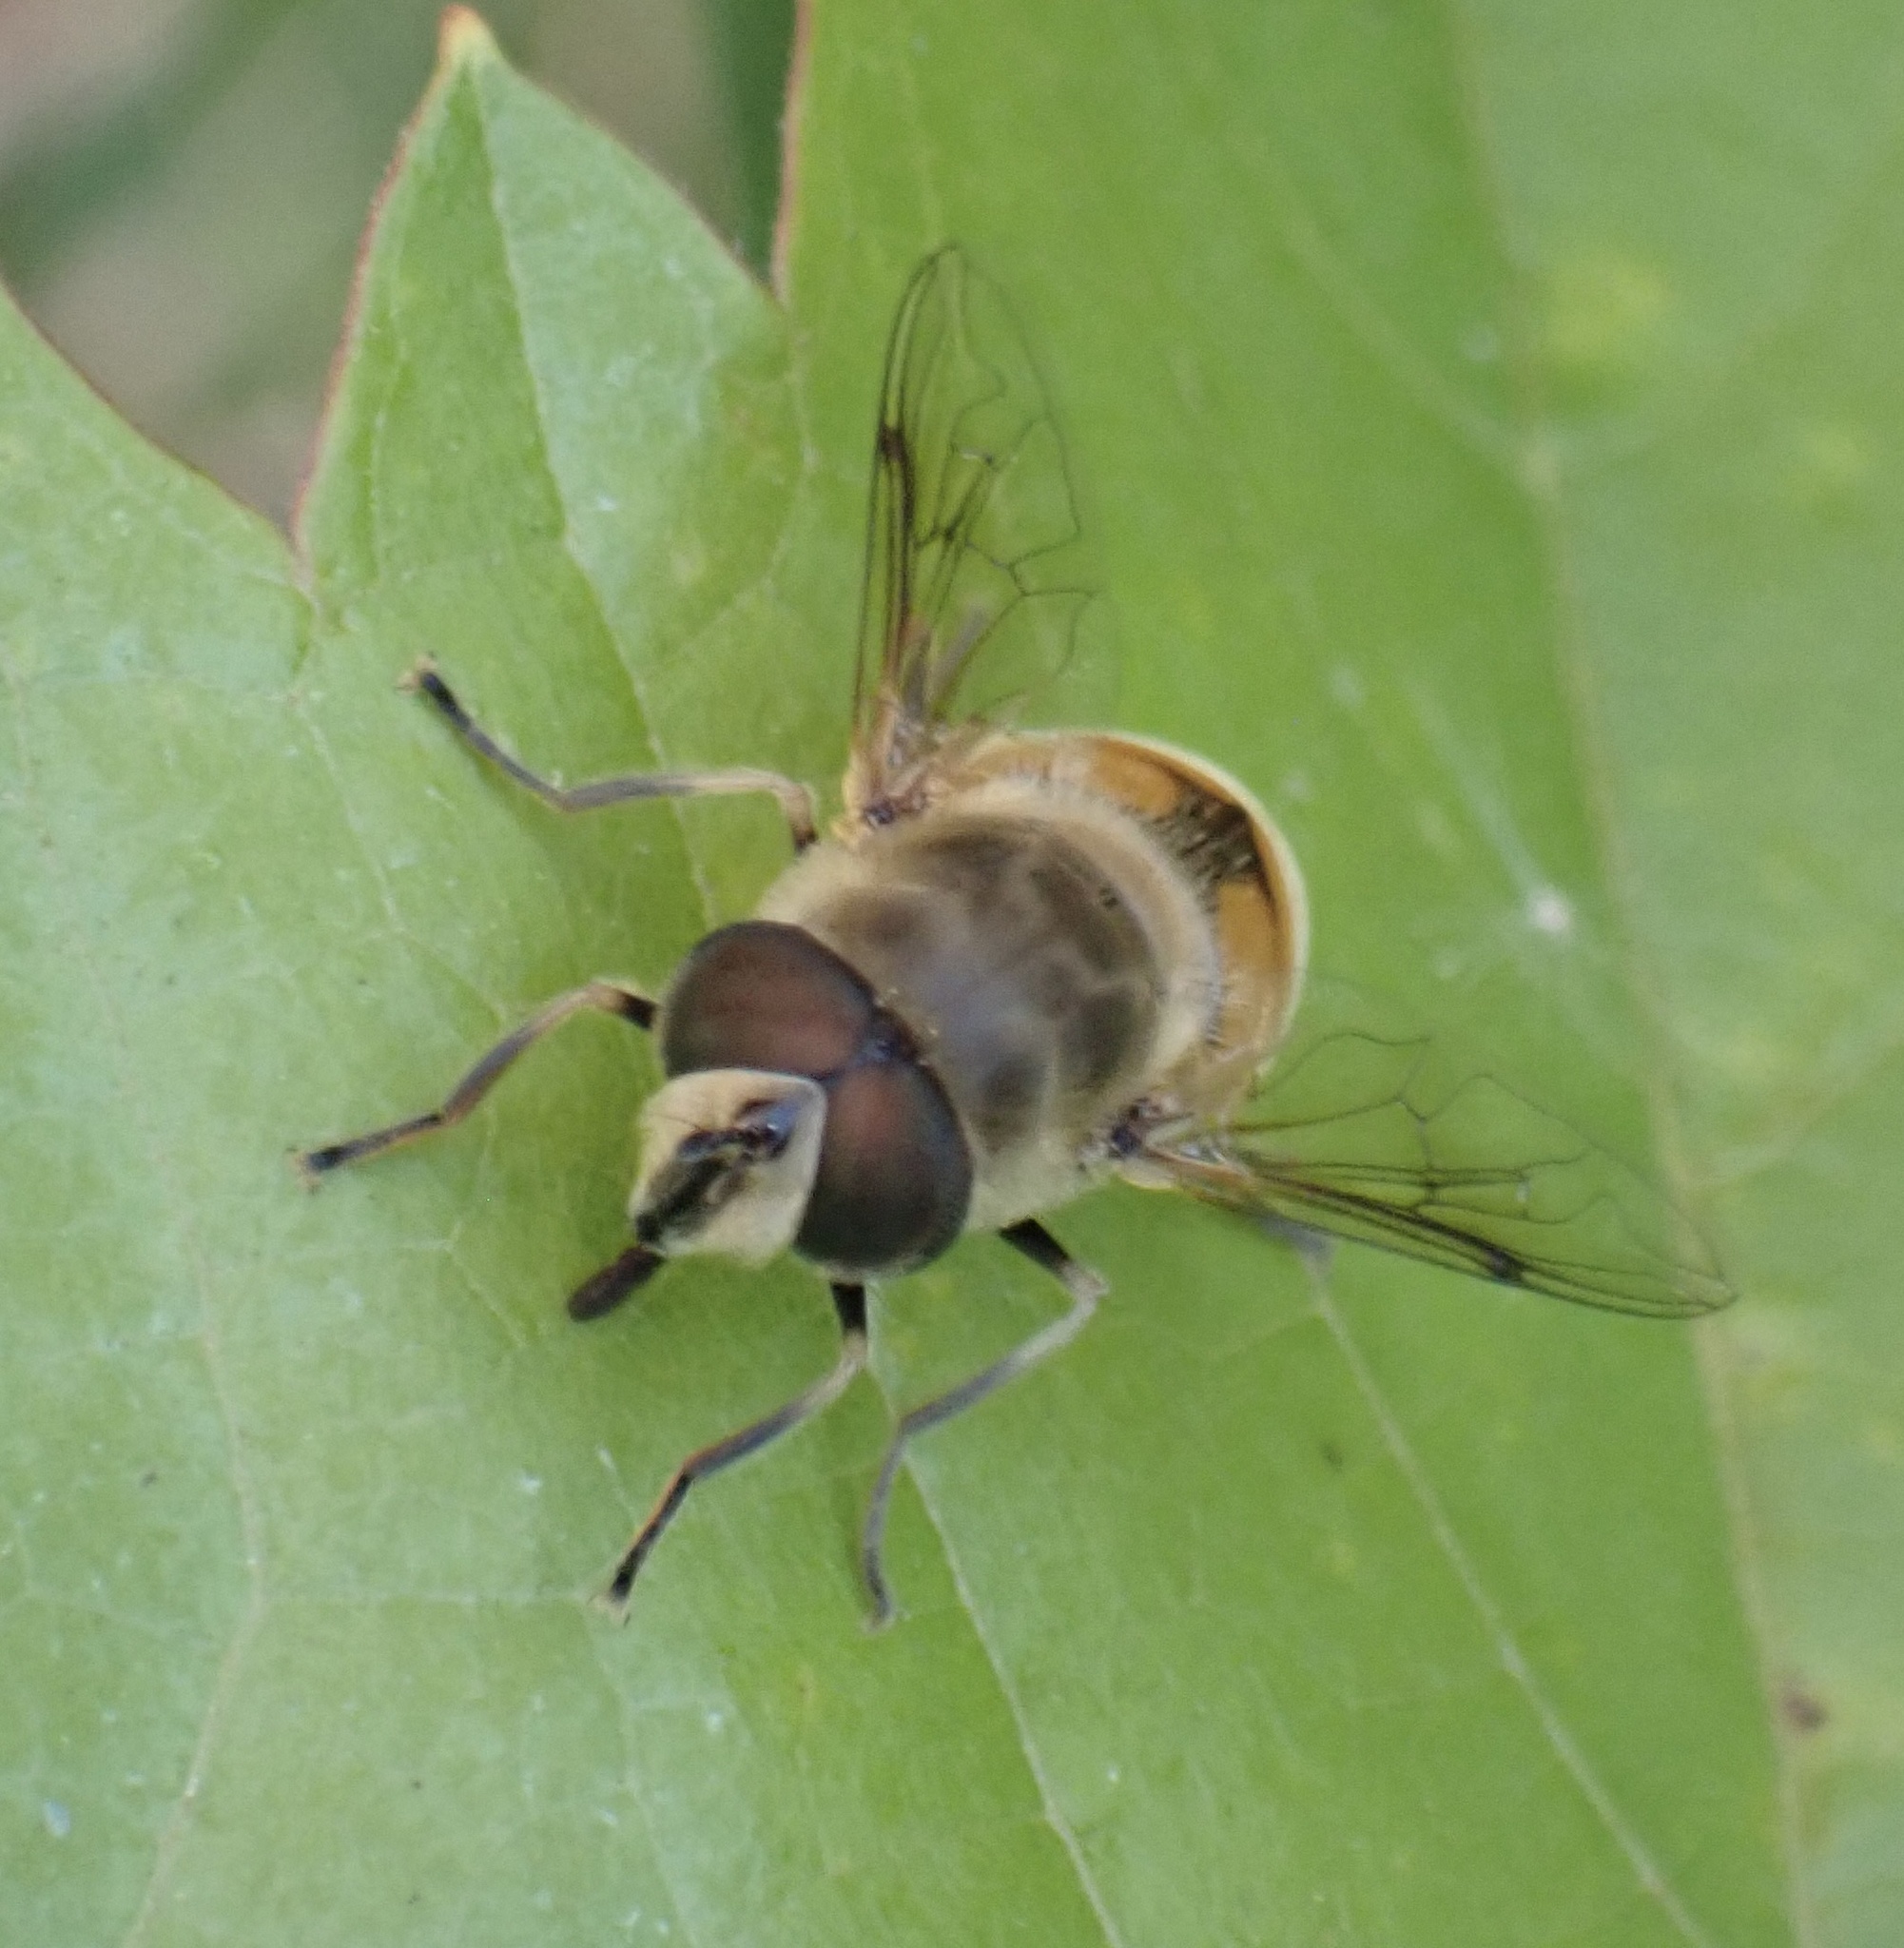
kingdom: Animalia
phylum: Arthropoda
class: Insecta
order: Diptera
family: Syrphidae
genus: Eristalis
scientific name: Eristalis tenax
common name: Drone fly
